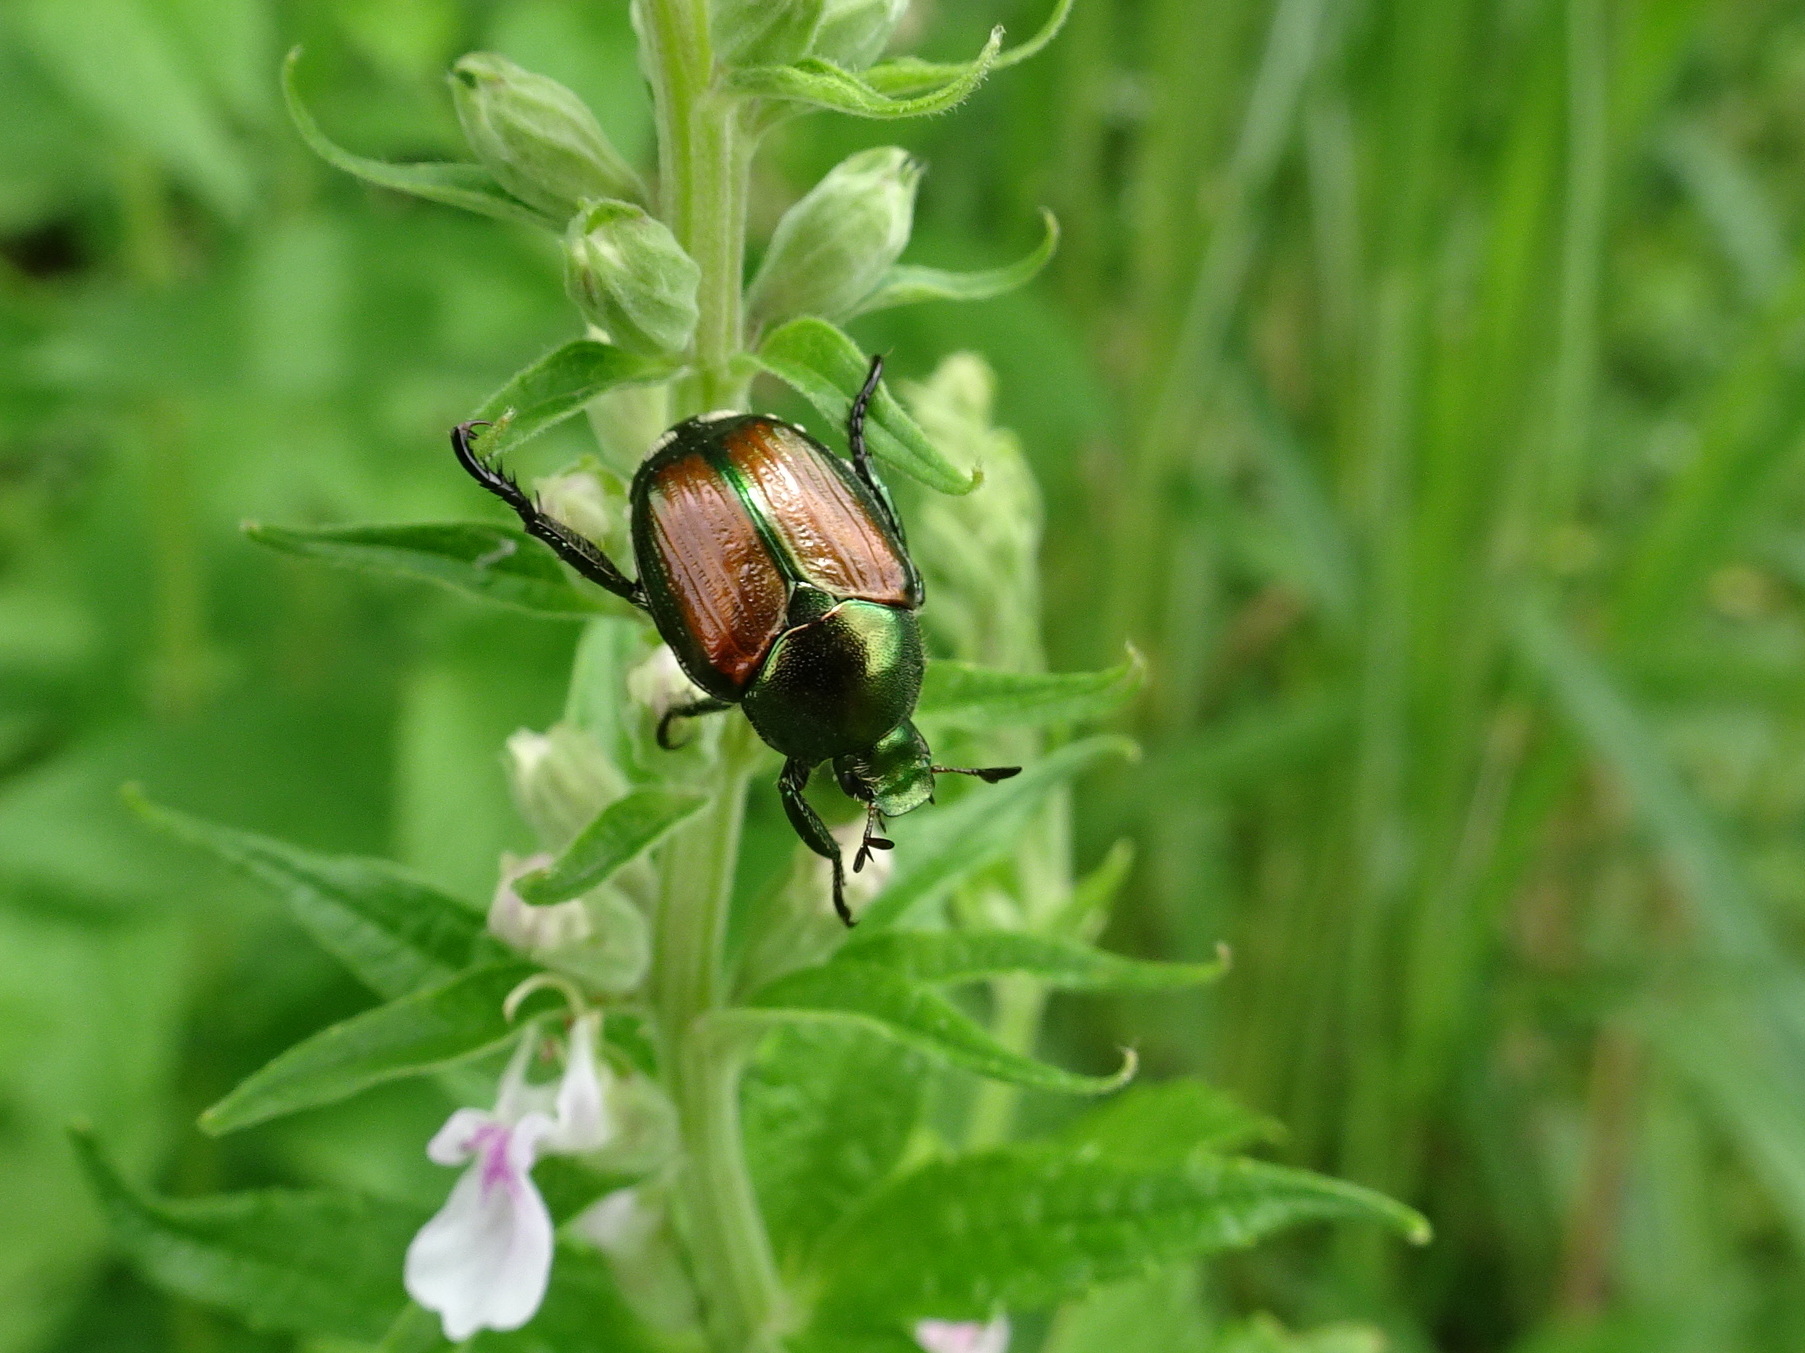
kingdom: Animalia
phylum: Arthropoda
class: Insecta
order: Coleoptera
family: Scarabaeidae
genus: Popillia
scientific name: Popillia japonica
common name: Japanese beetle
